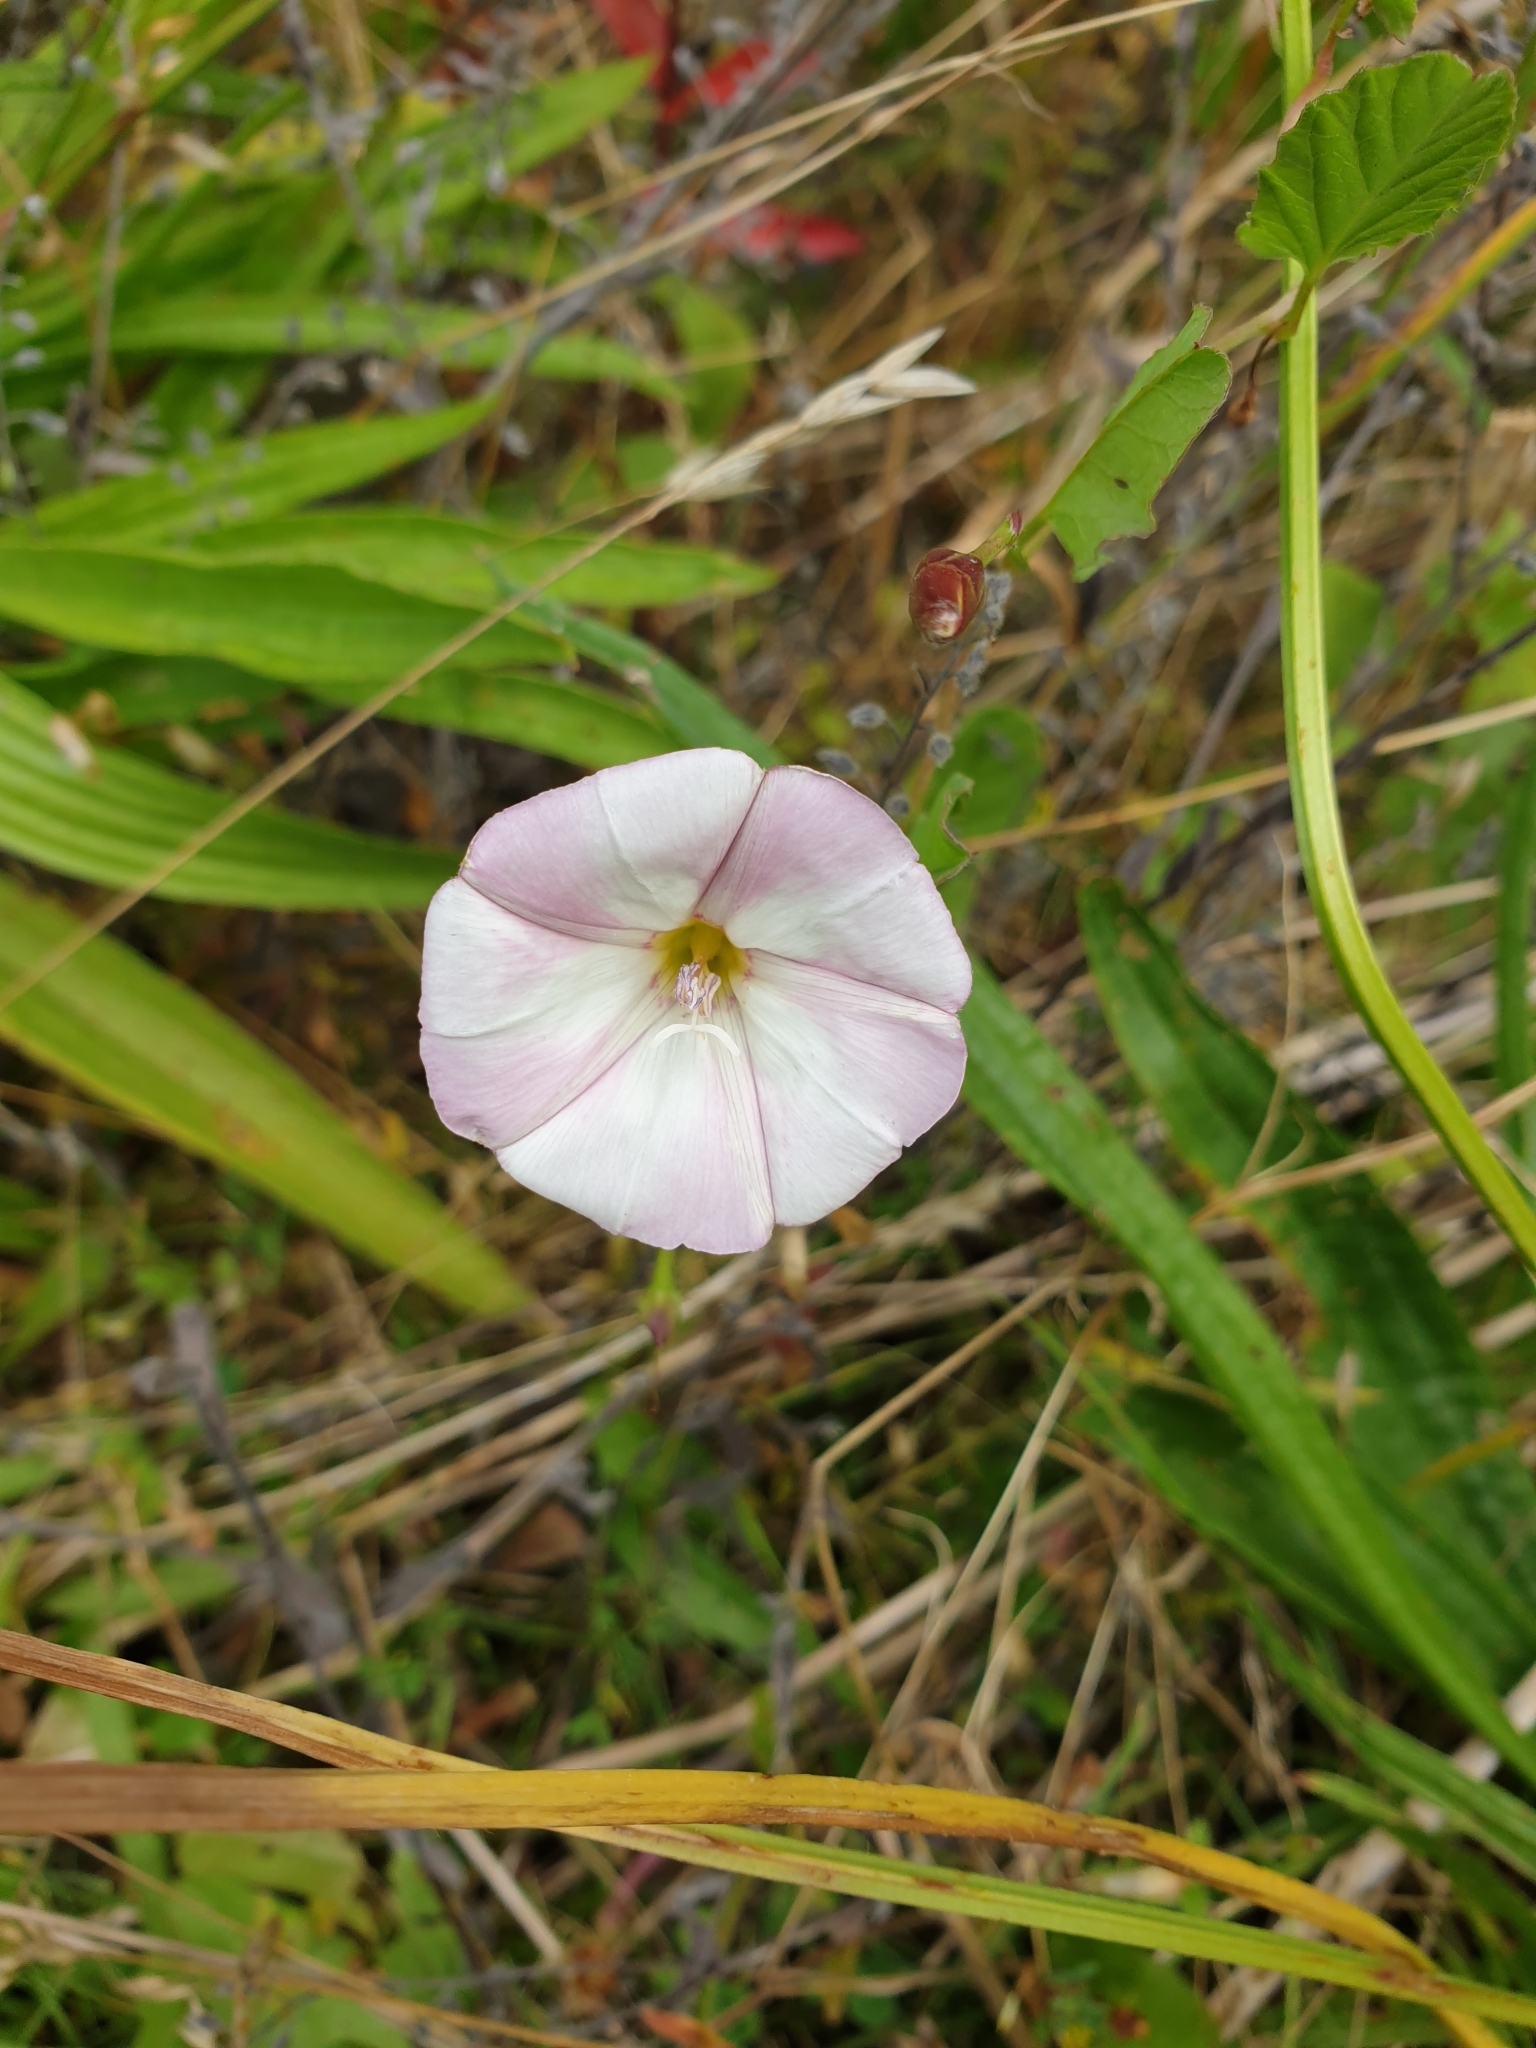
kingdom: Plantae
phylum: Tracheophyta
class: Magnoliopsida
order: Solanales
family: Convolvulaceae
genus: Convolvulus
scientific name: Convolvulus arvensis
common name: Field bindweed
